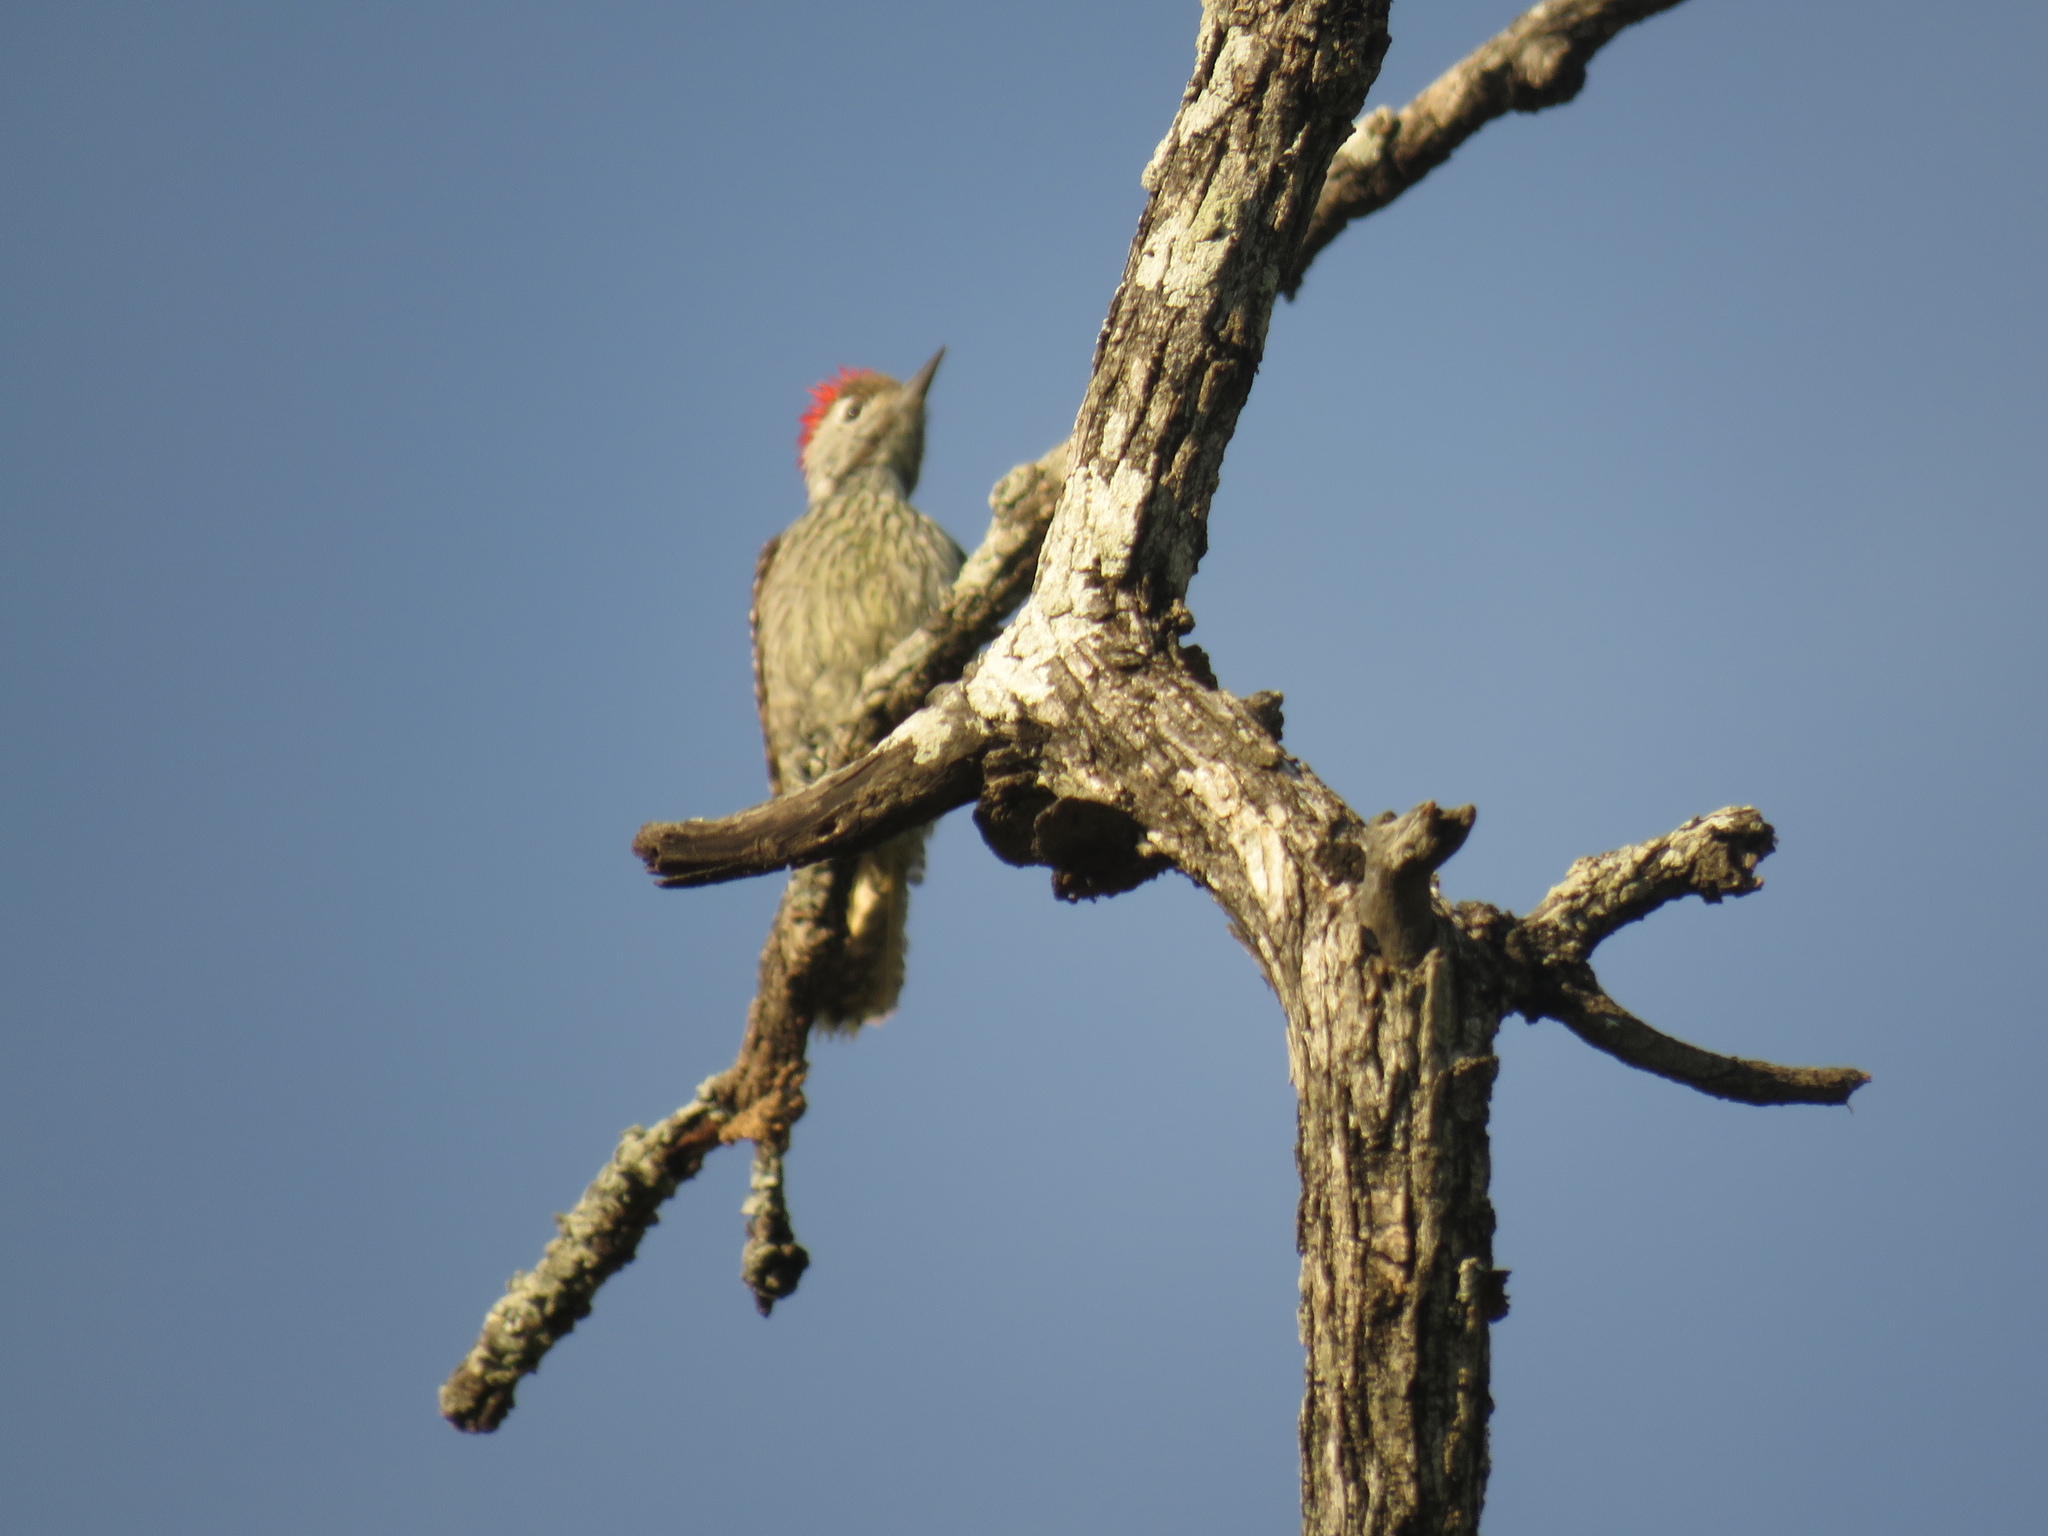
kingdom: Animalia
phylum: Chordata
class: Aves
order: Piciformes
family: Picidae
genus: Dendropicos
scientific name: Dendropicos fuscescens
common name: Cardinal woodpecker
